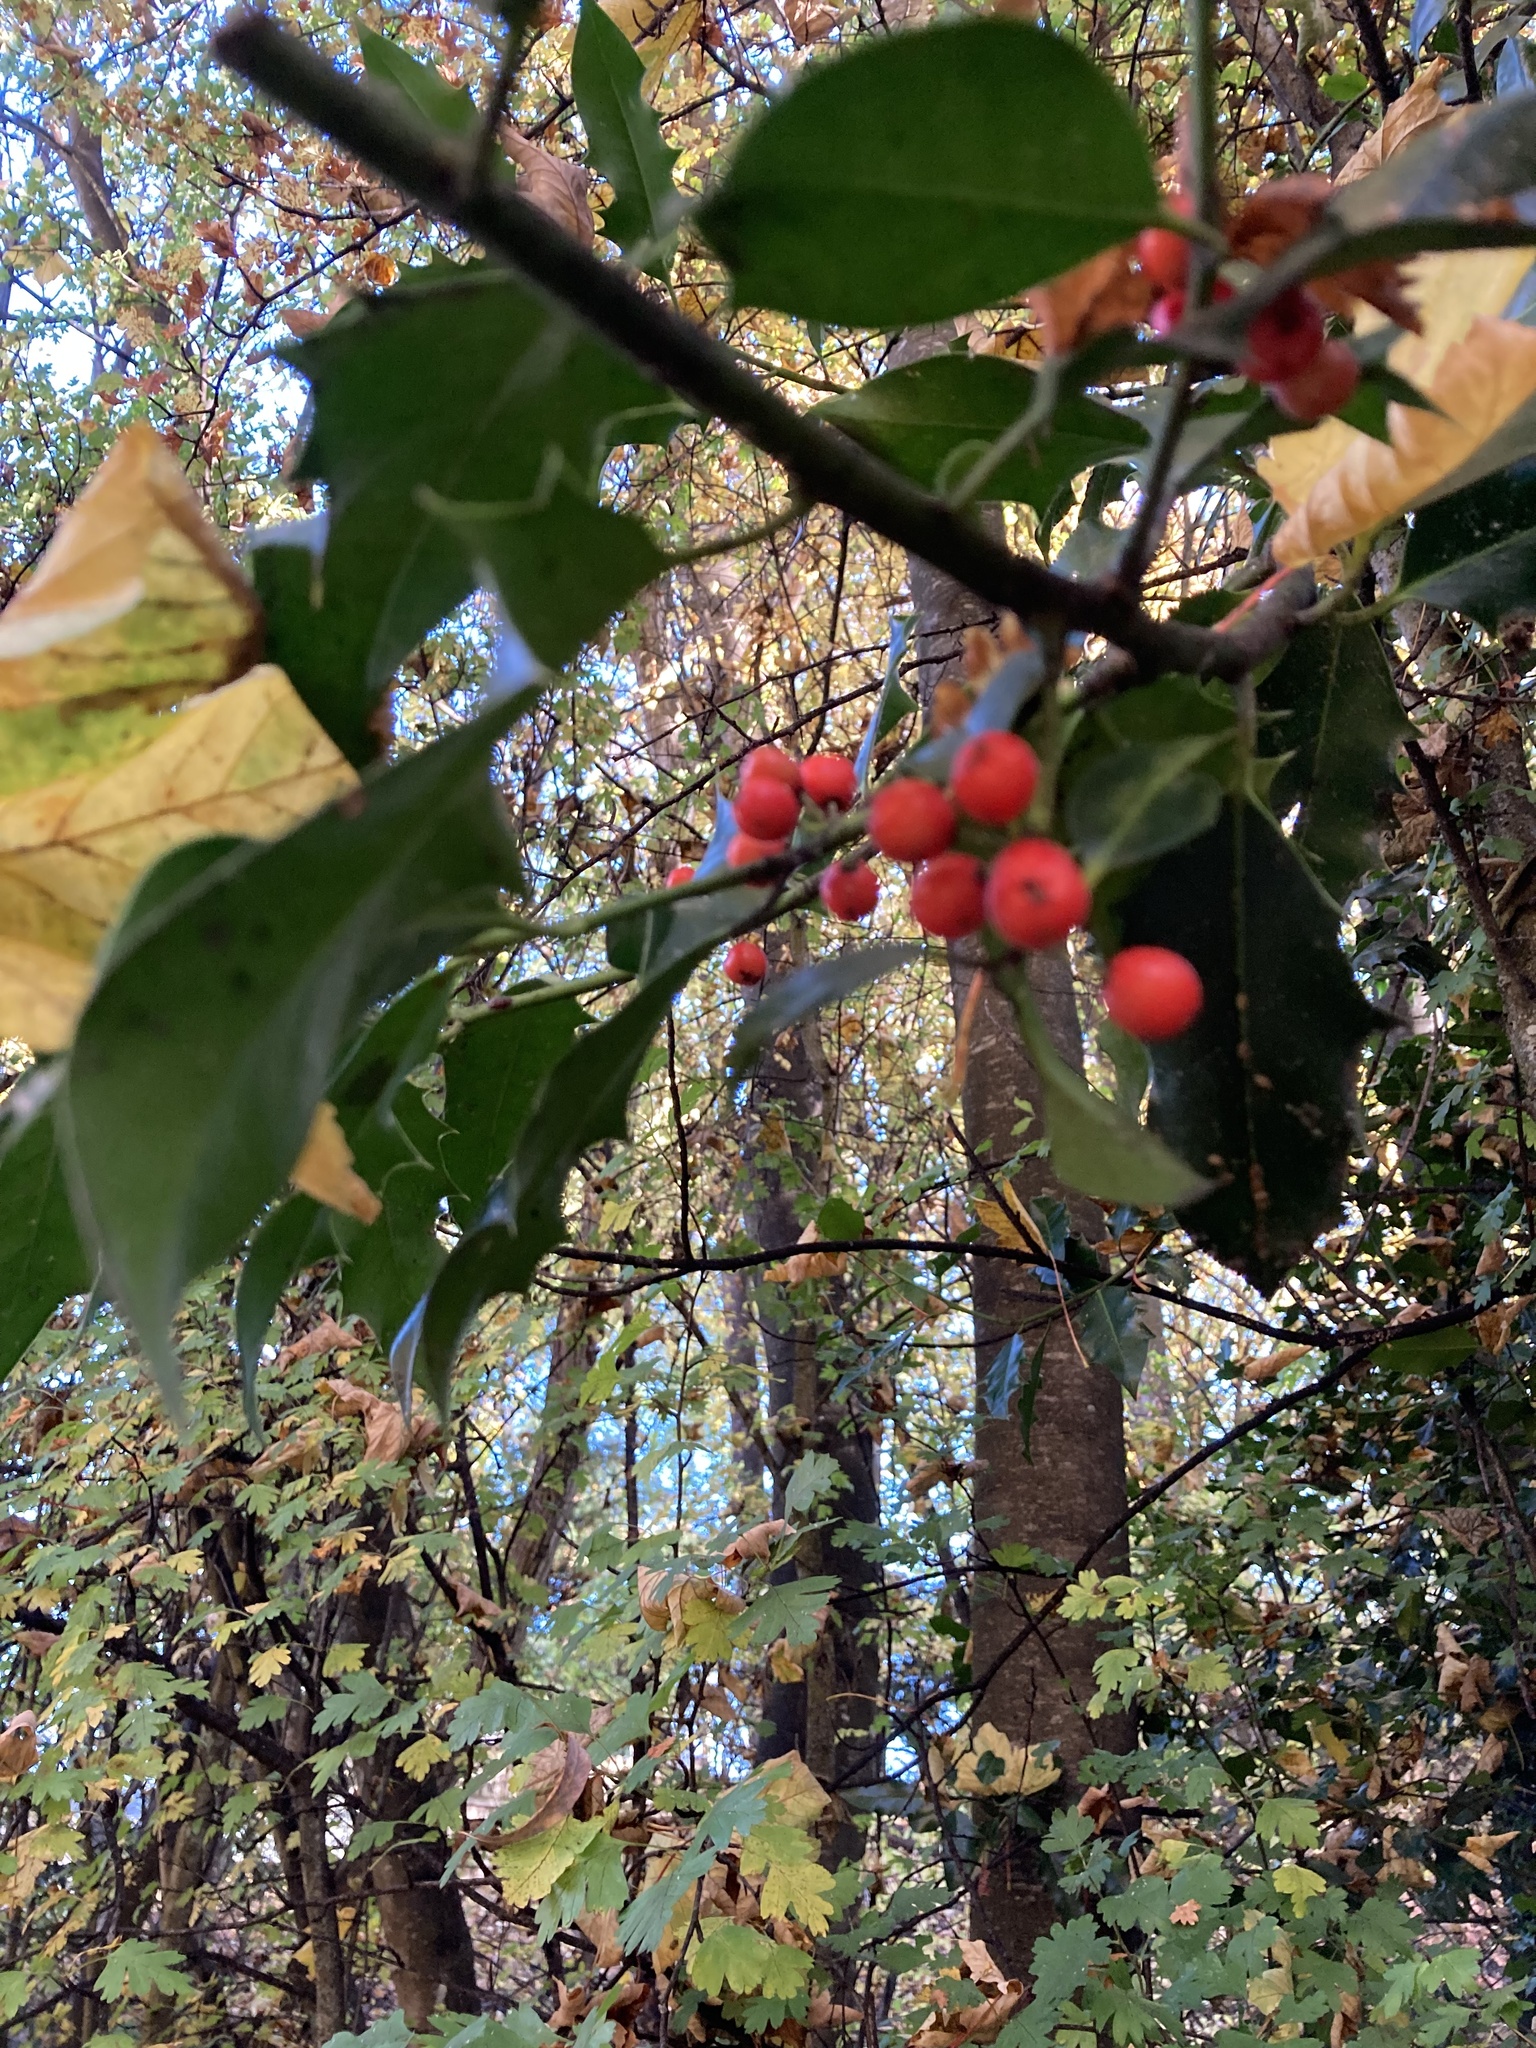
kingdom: Plantae
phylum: Tracheophyta
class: Magnoliopsida
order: Aquifoliales
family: Aquifoliaceae
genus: Ilex
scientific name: Ilex aquifolium
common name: English holly
